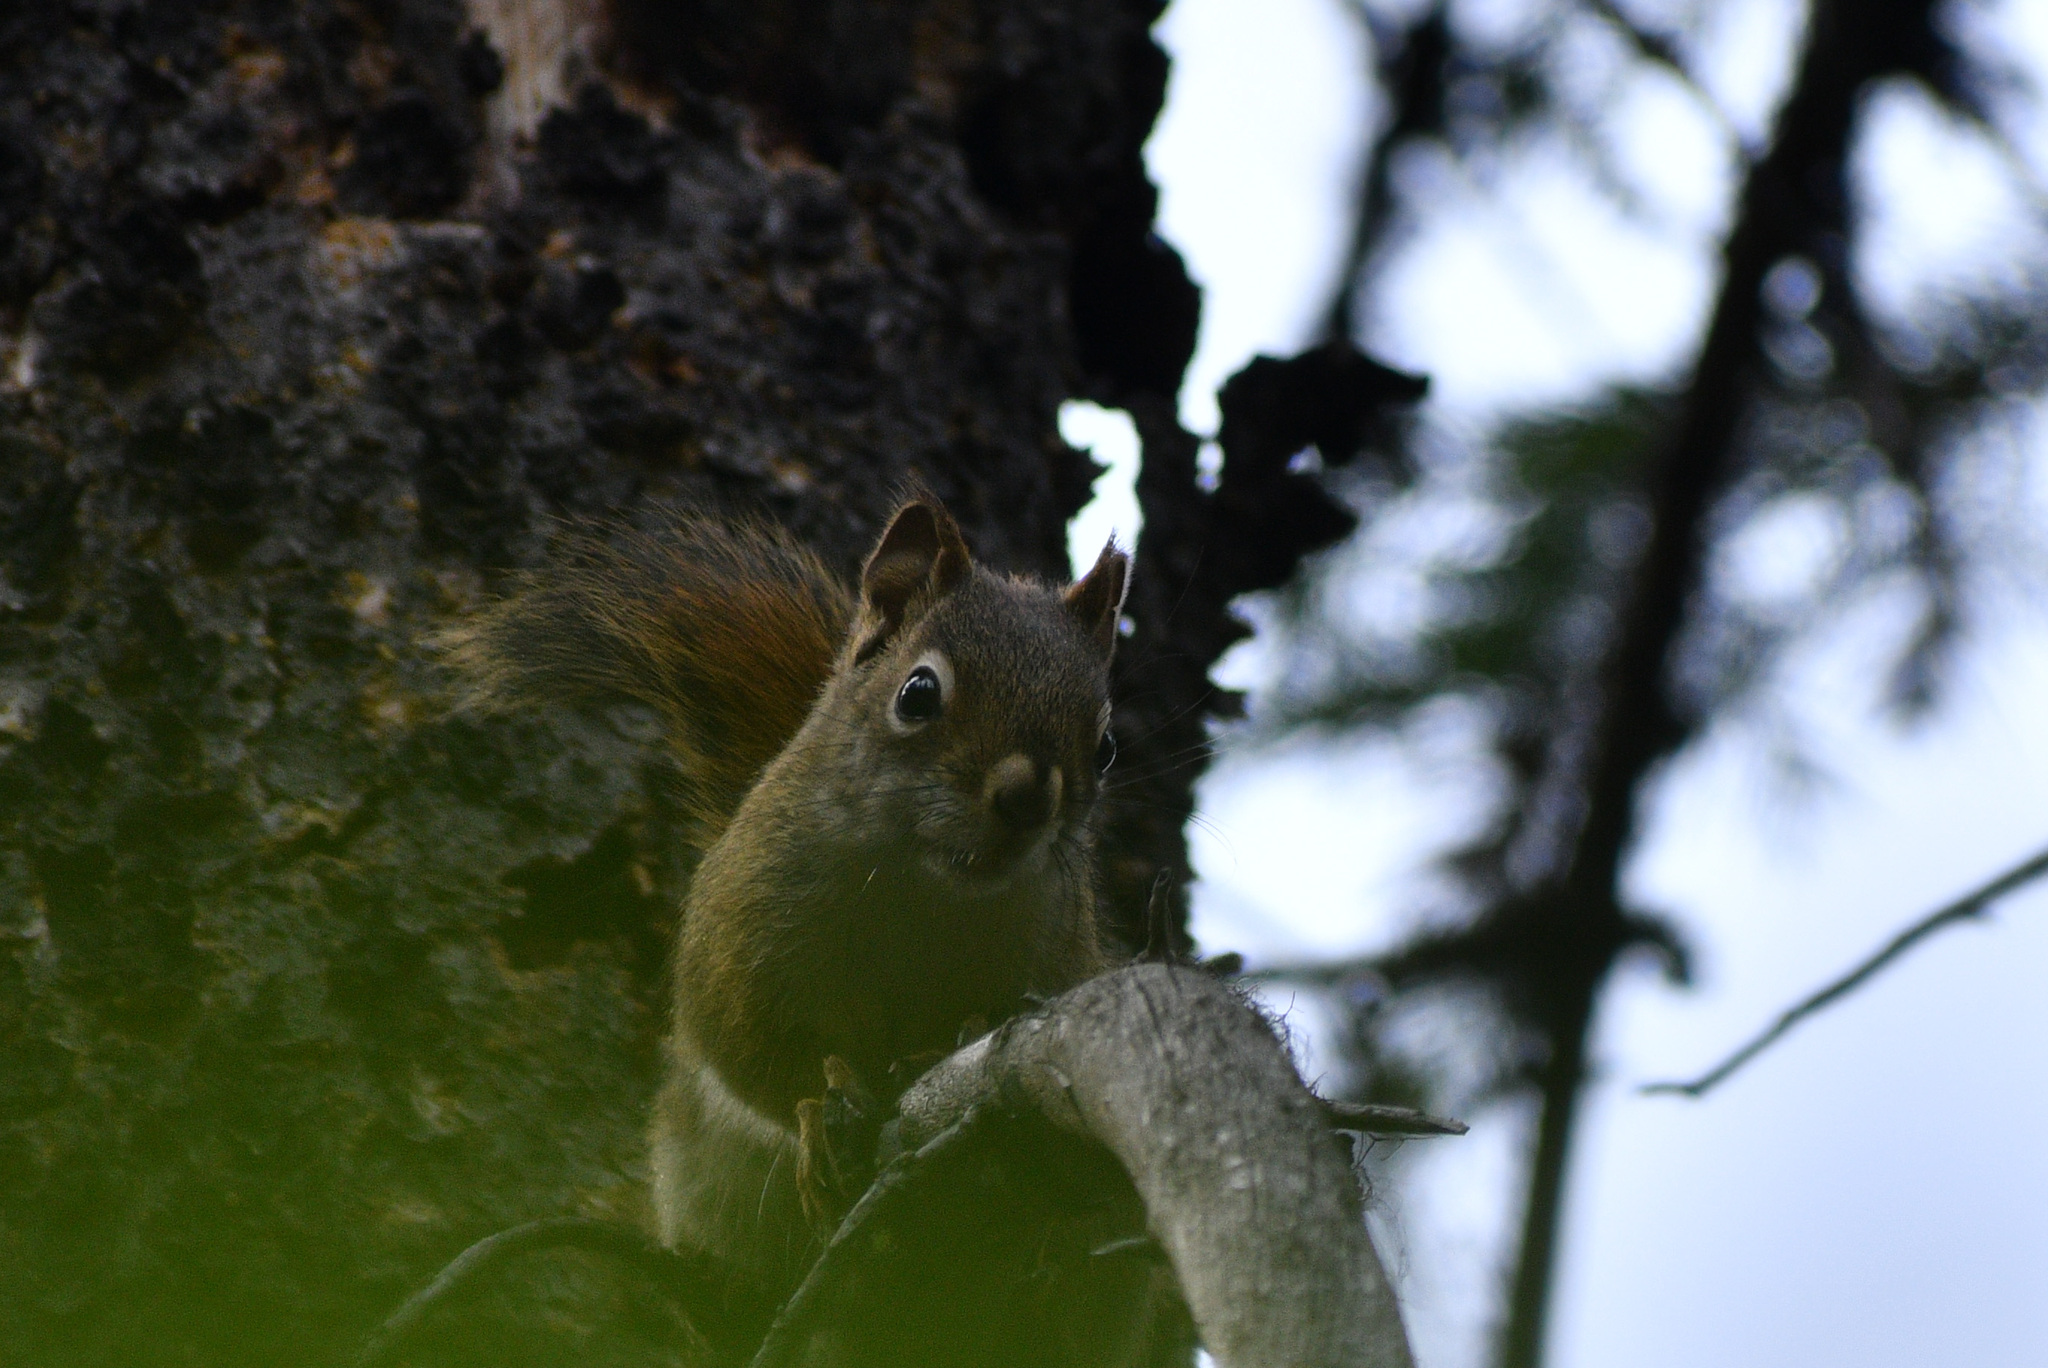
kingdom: Animalia
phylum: Chordata
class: Mammalia
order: Rodentia
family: Sciuridae
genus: Tamiasciurus
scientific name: Tamiasciurus hudsonicus
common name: Red squirrel
